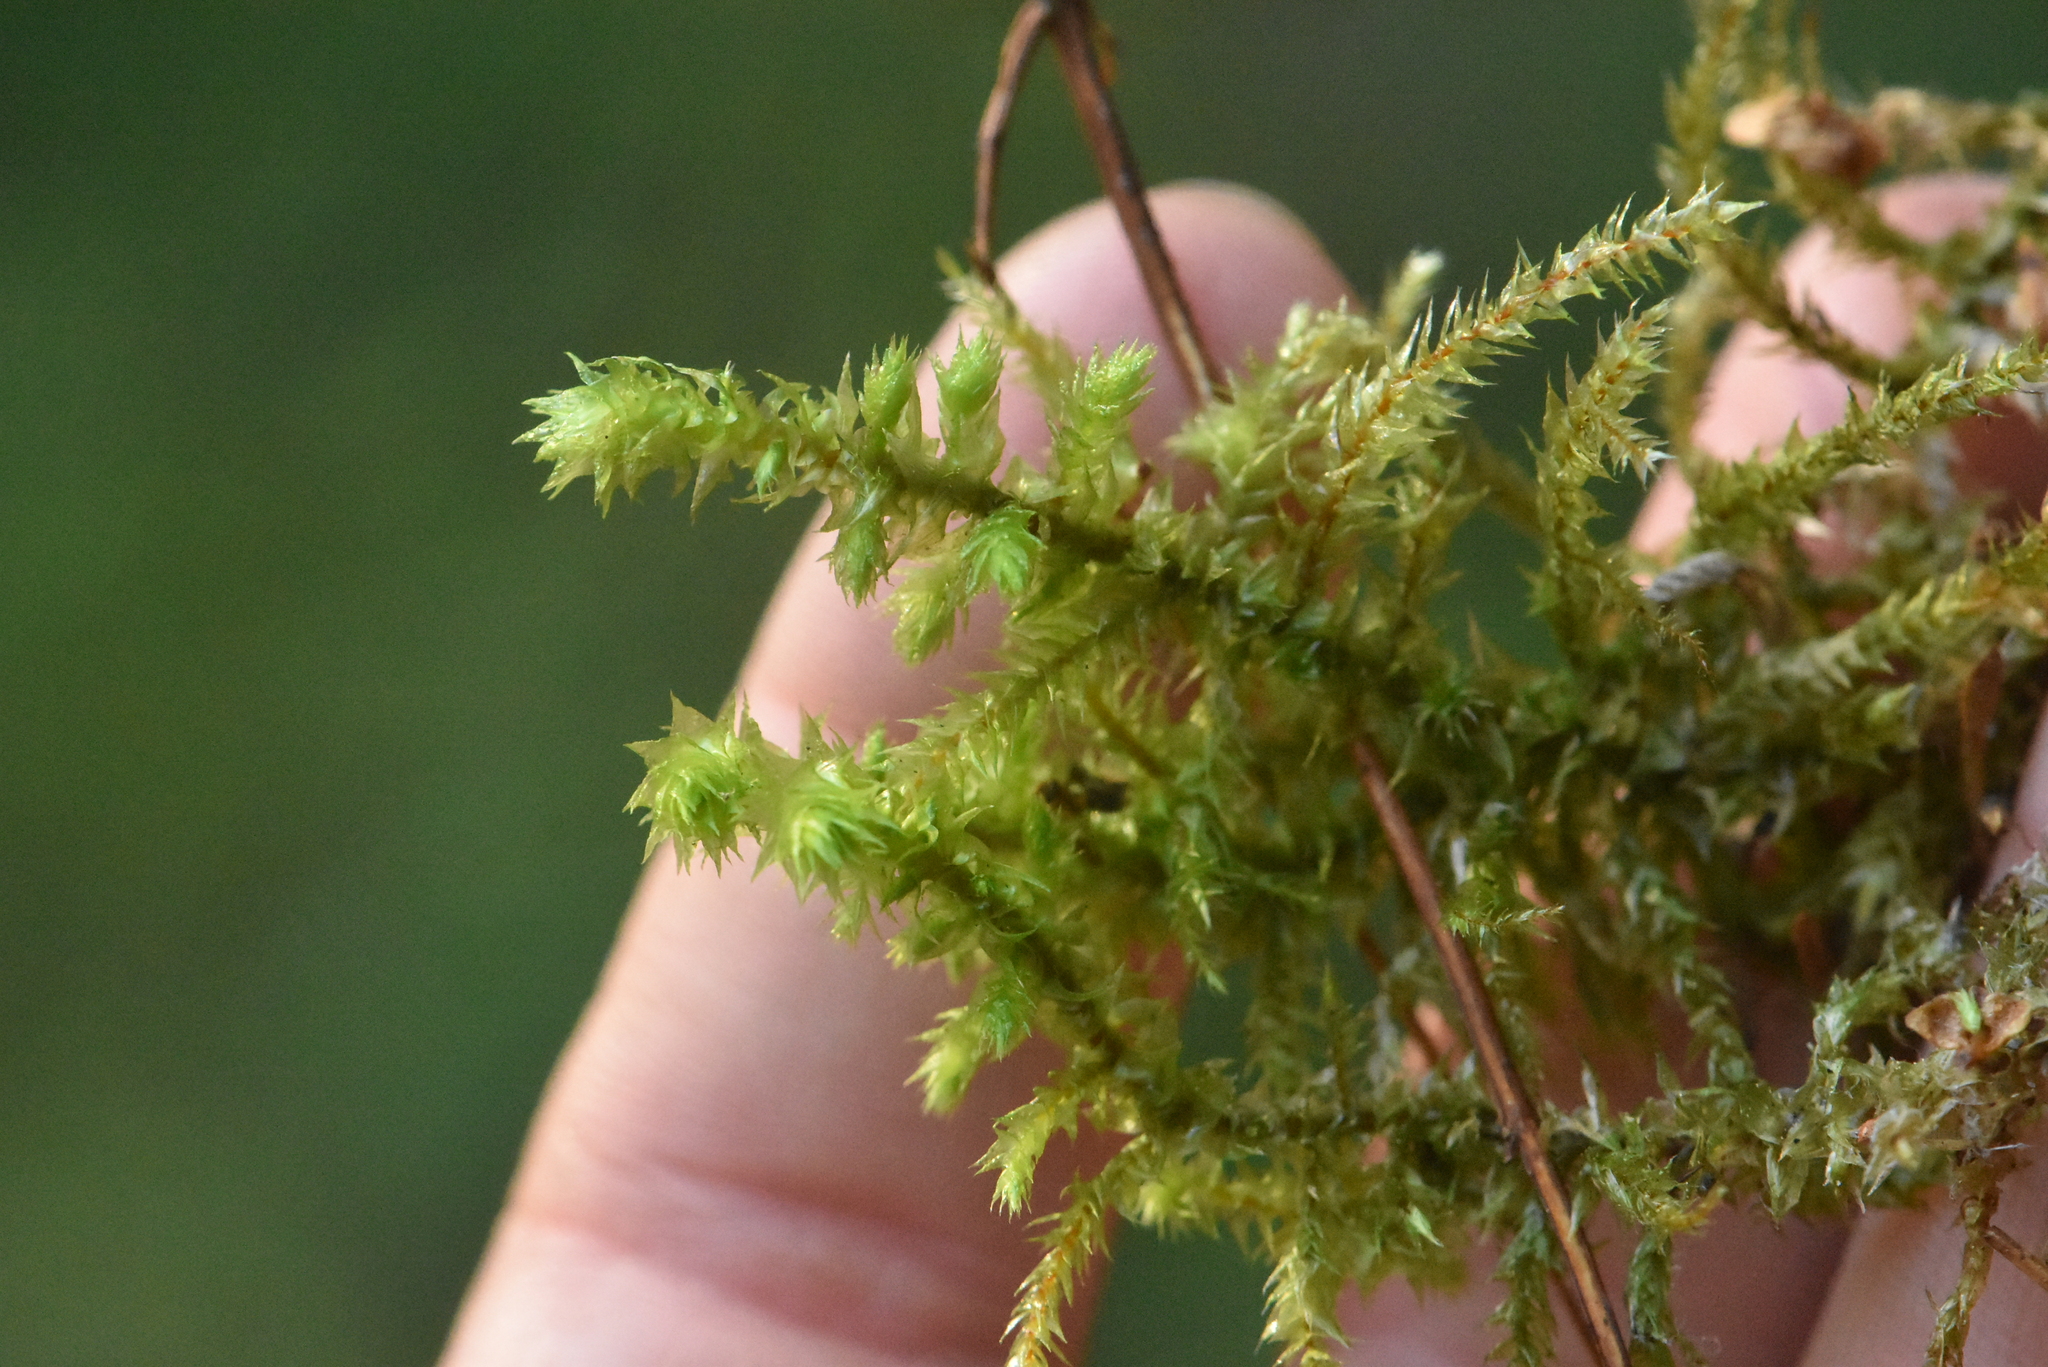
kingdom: Plantae
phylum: Bryophyta
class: Bryopsida
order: Hypnales
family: Hylocomiaceae
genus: Hylocomiadelphus
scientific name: Hylocomiadelphus triquetrus
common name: Rough goose neck moss
